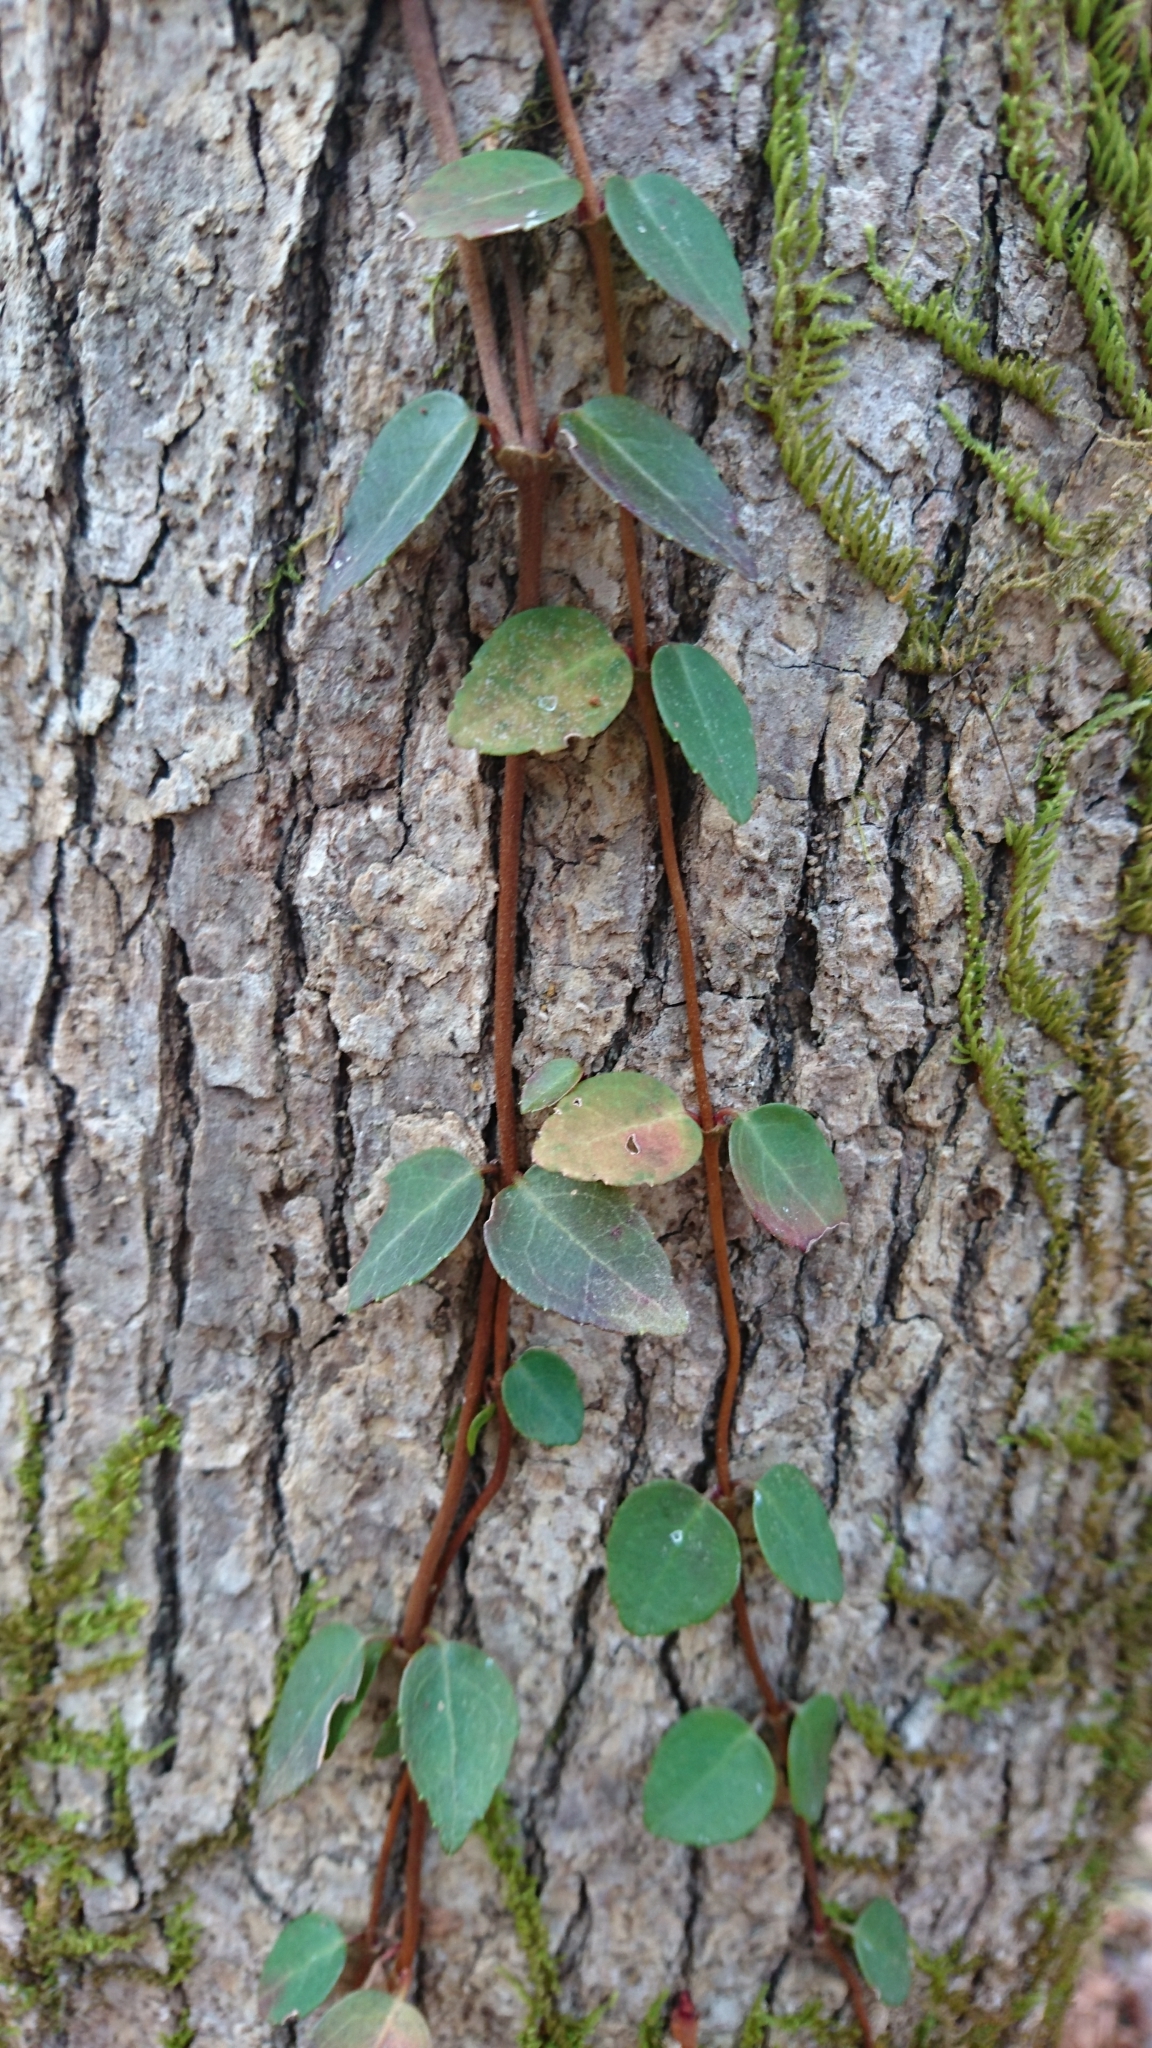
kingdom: Plantae
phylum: Tracheophyta
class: Magnoliopsida
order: Cornales
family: Hydrangeaceae
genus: Hydrangea
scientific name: Hydrangea barbara
